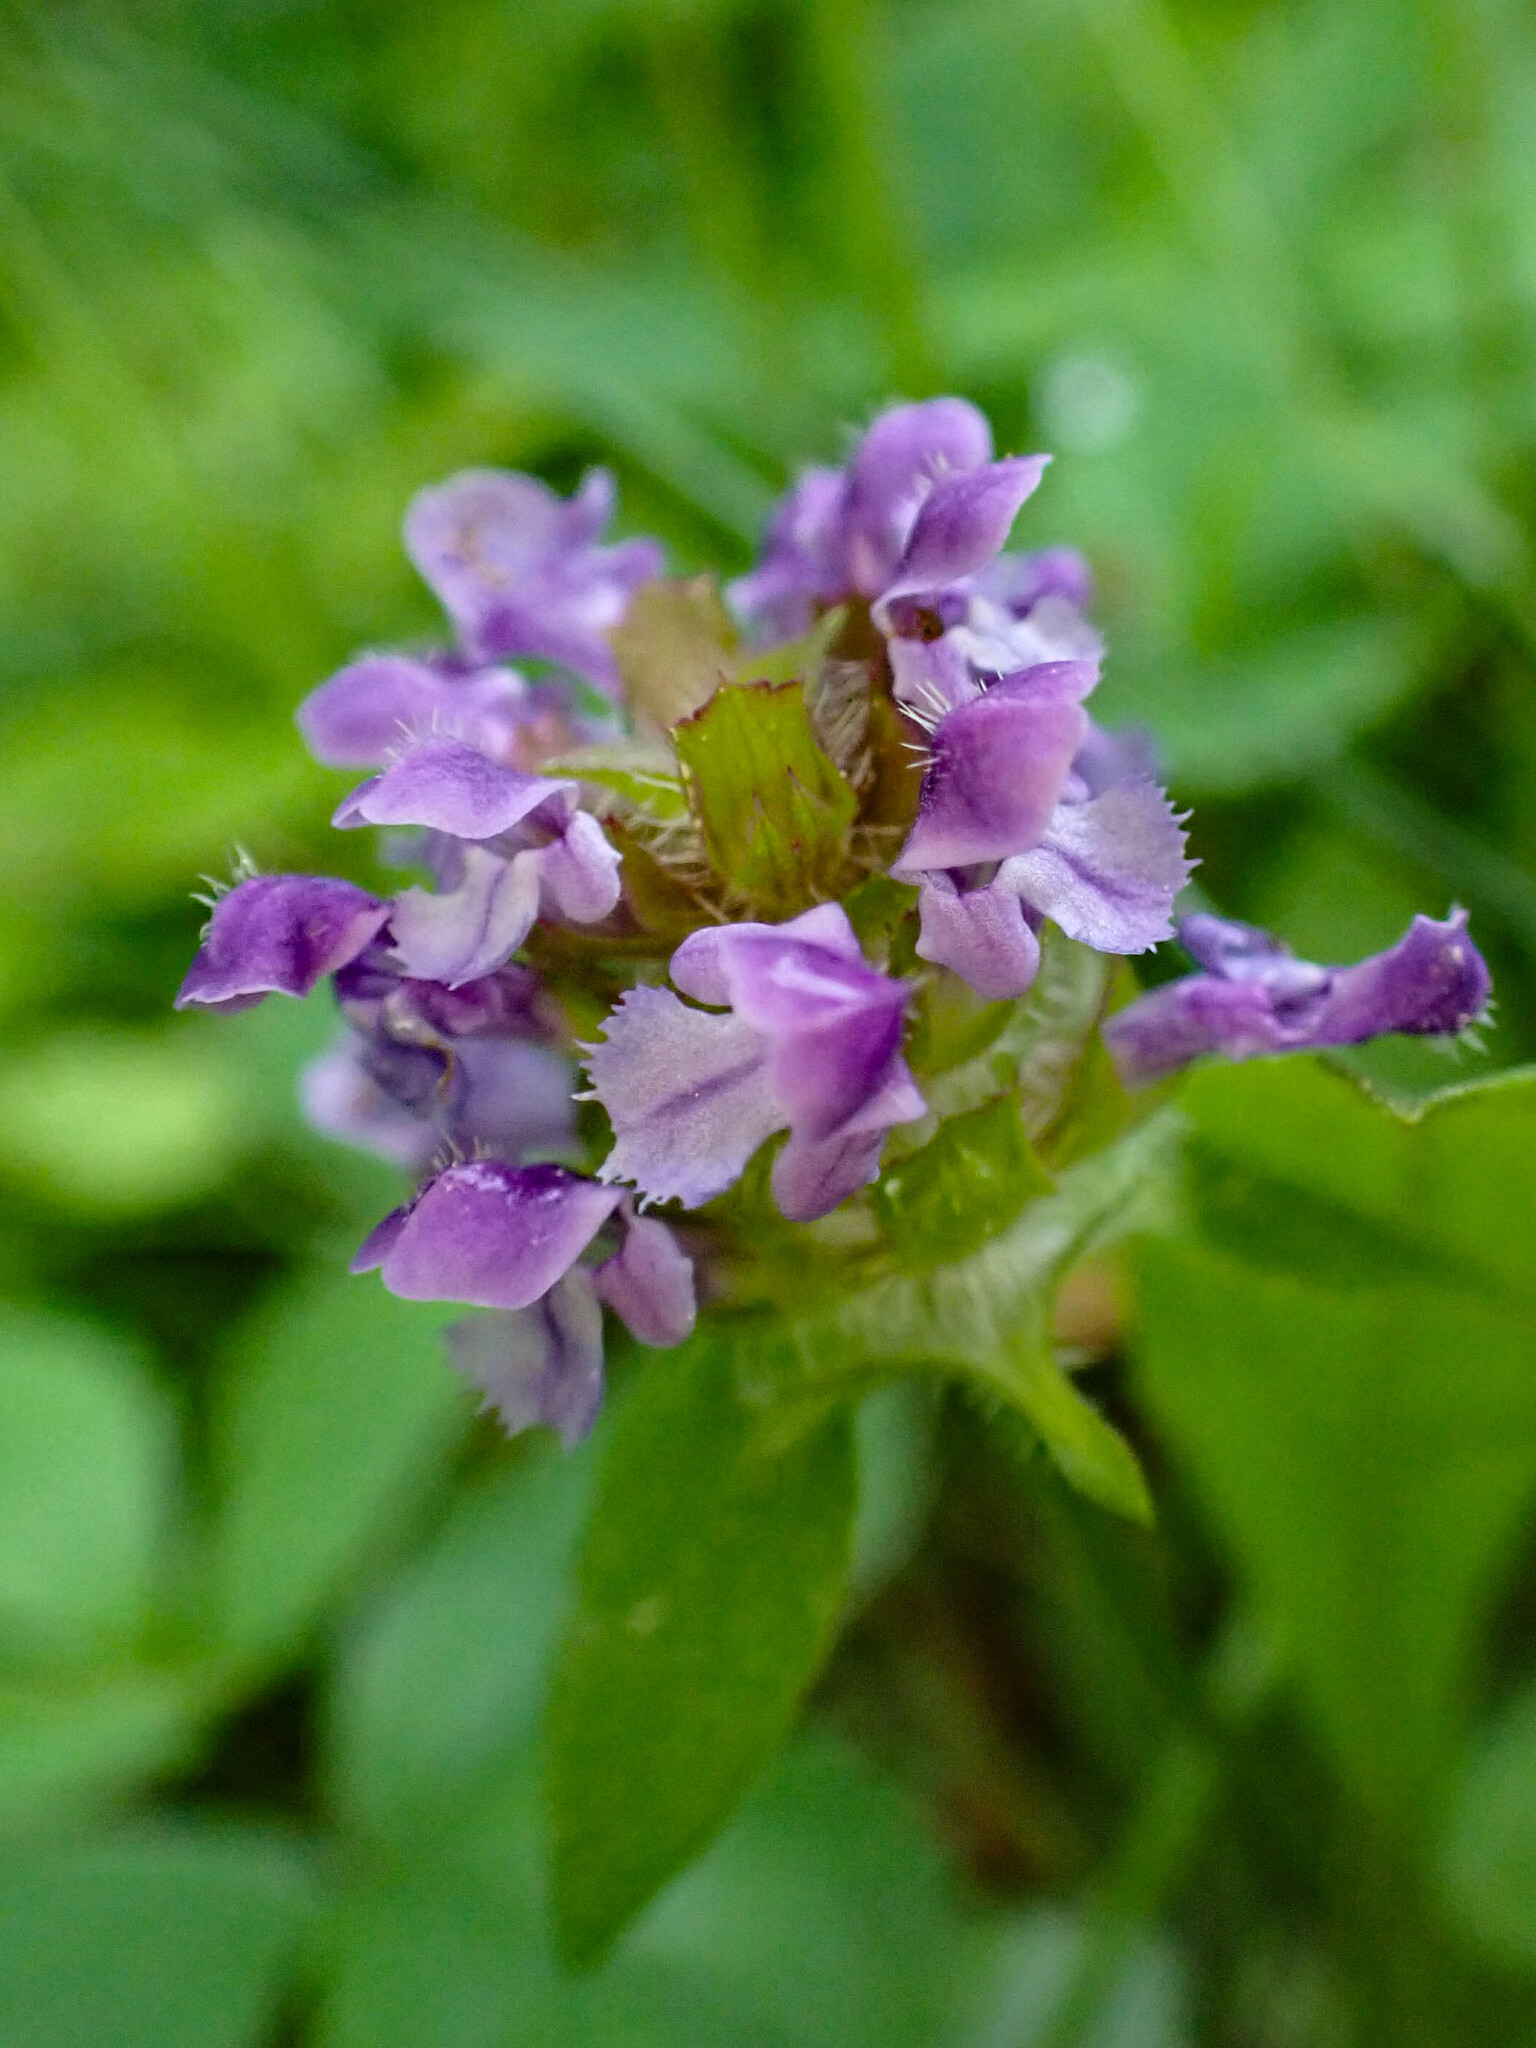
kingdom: Plantae
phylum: Tracheophyta
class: Magnoliopsida
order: Lamiales
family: Lamiaceae
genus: Prunella
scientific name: Prunella vulgaris
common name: Heal-all
